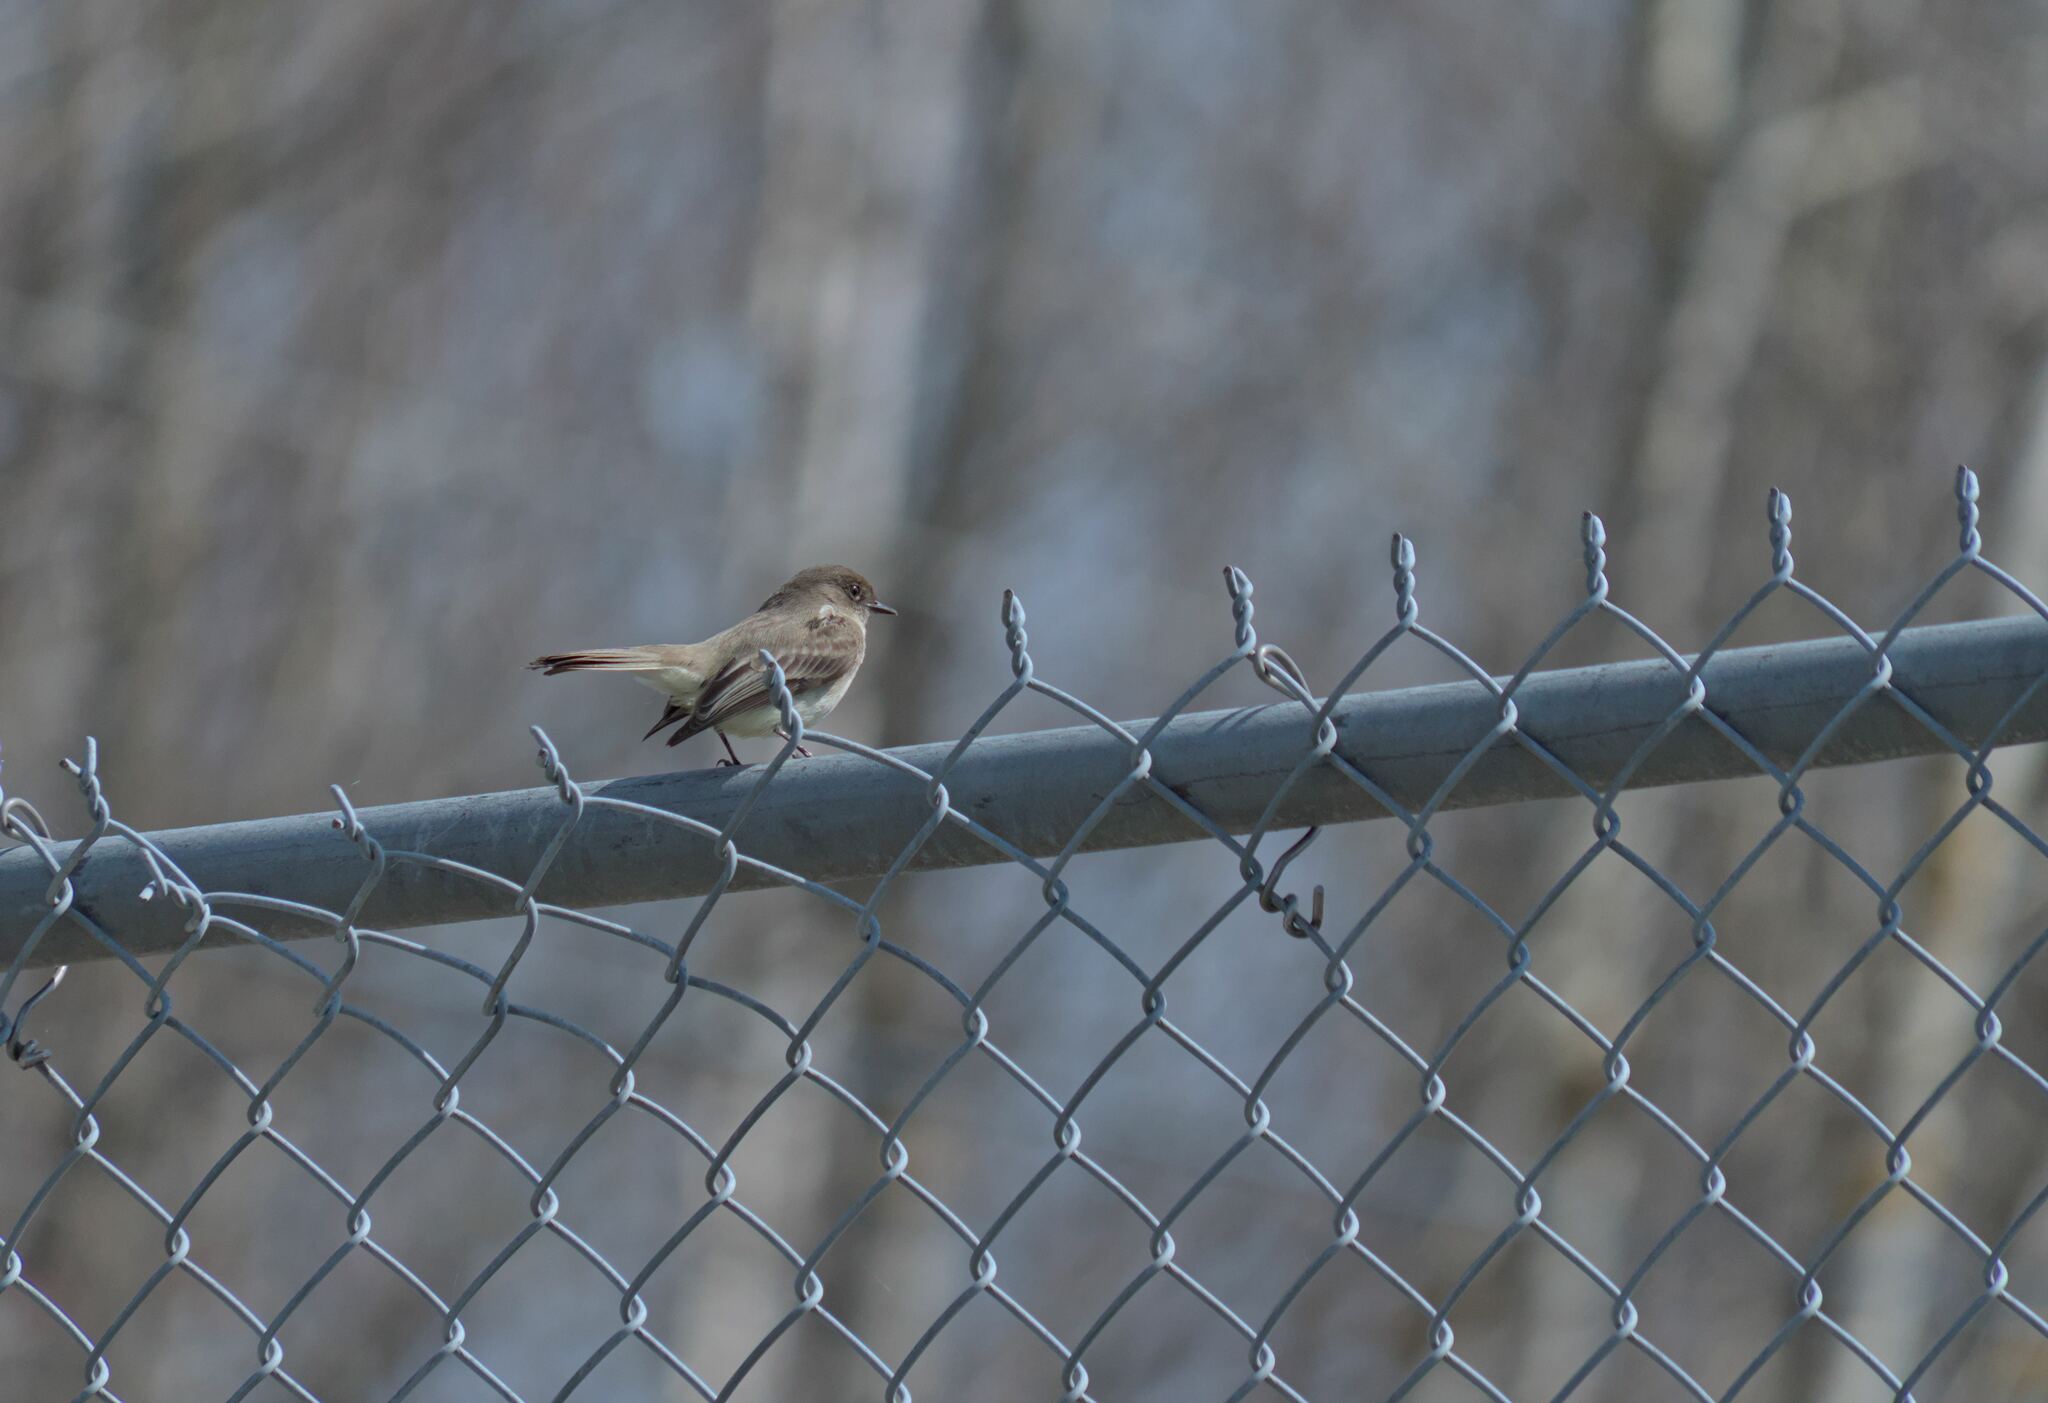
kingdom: Animalia
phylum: Chordata
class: Aves
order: Passeriformes
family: Tyrannidae
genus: Sayornis
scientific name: Sayornis phoebe
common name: Eastern phoebe
